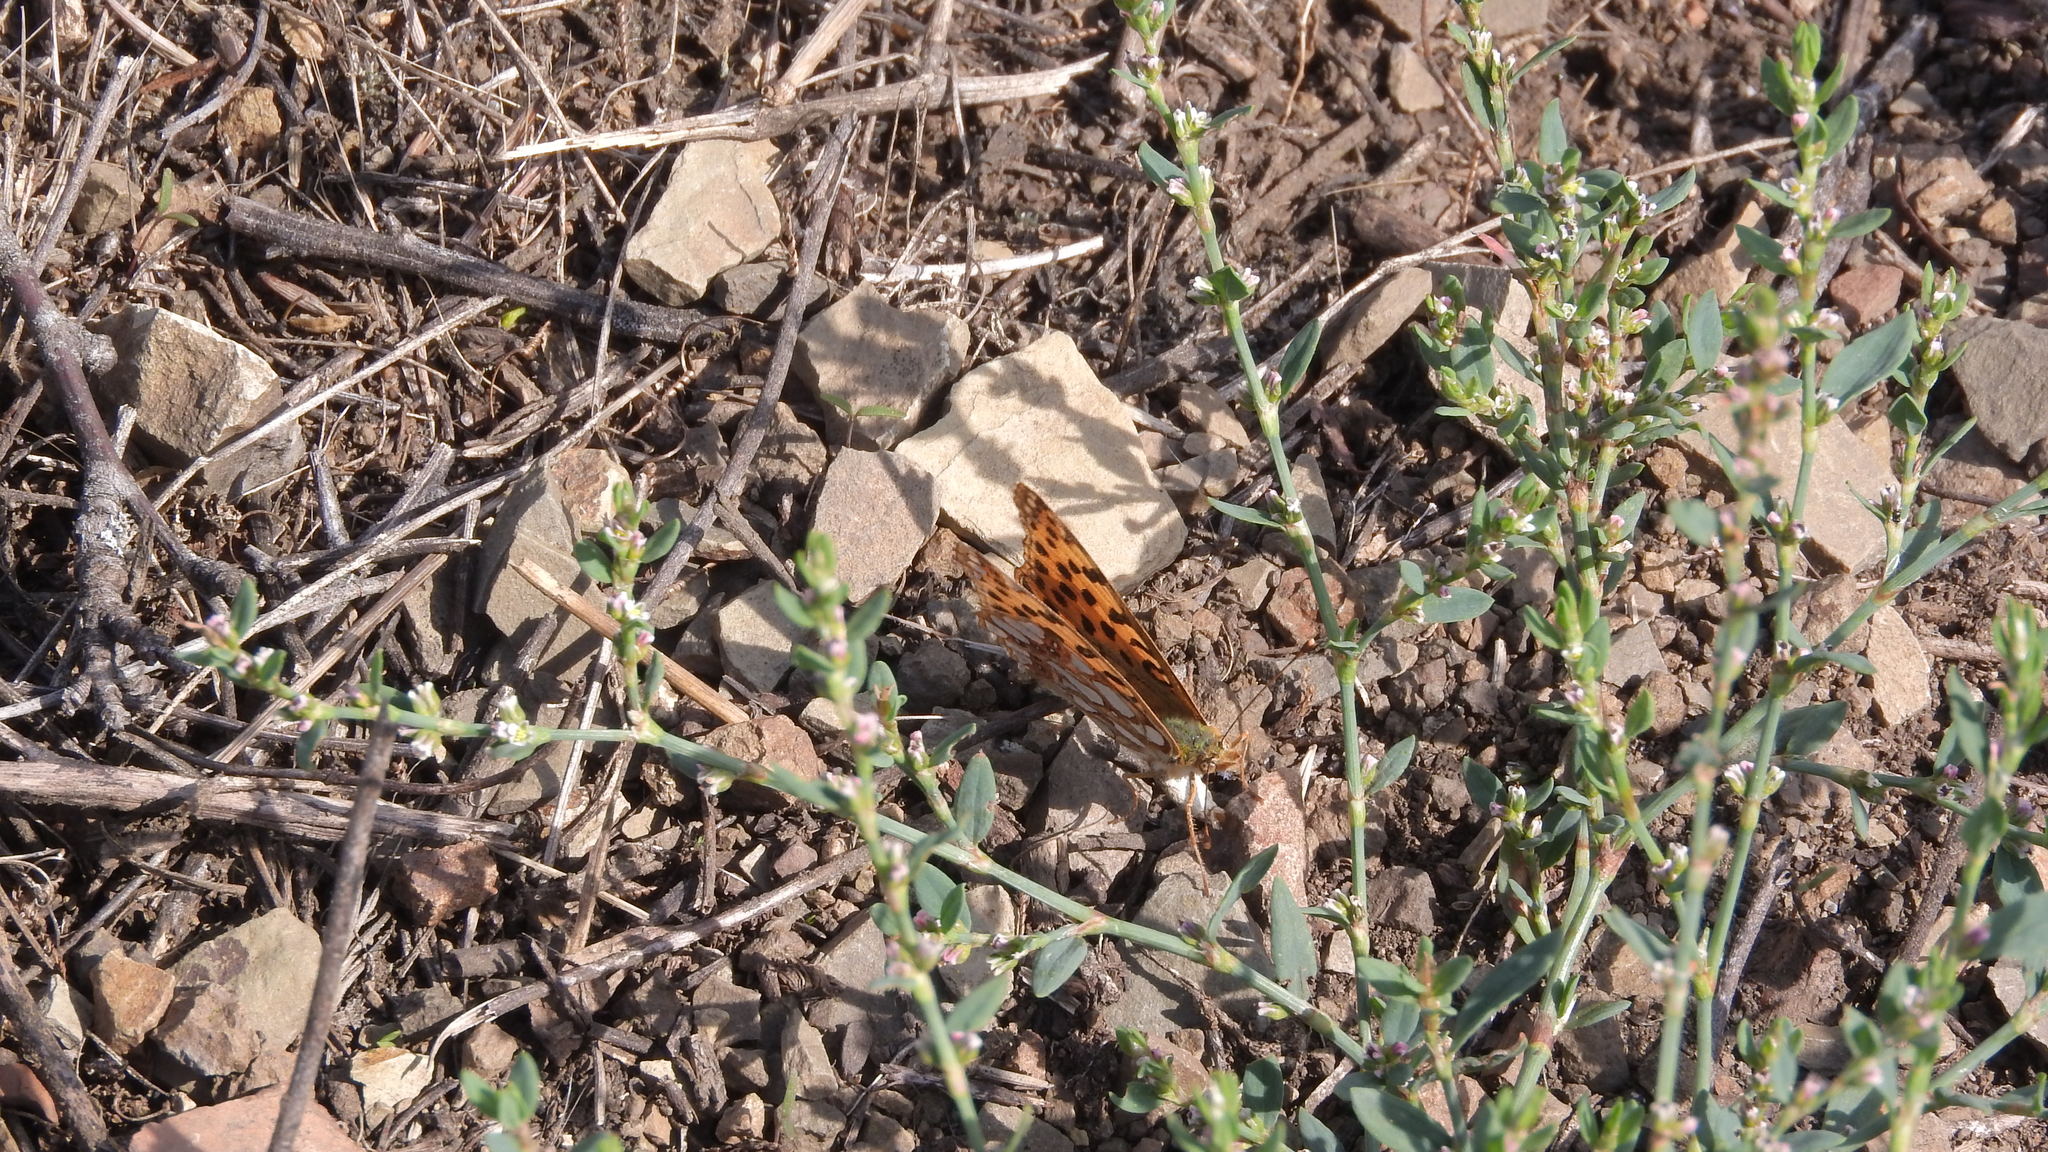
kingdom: Animalia
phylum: Arthropoda
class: Insecta
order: Lepidoptera
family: Nymphalidae
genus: Issoria
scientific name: Issoria lathonia
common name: Queen of spain fritillary
